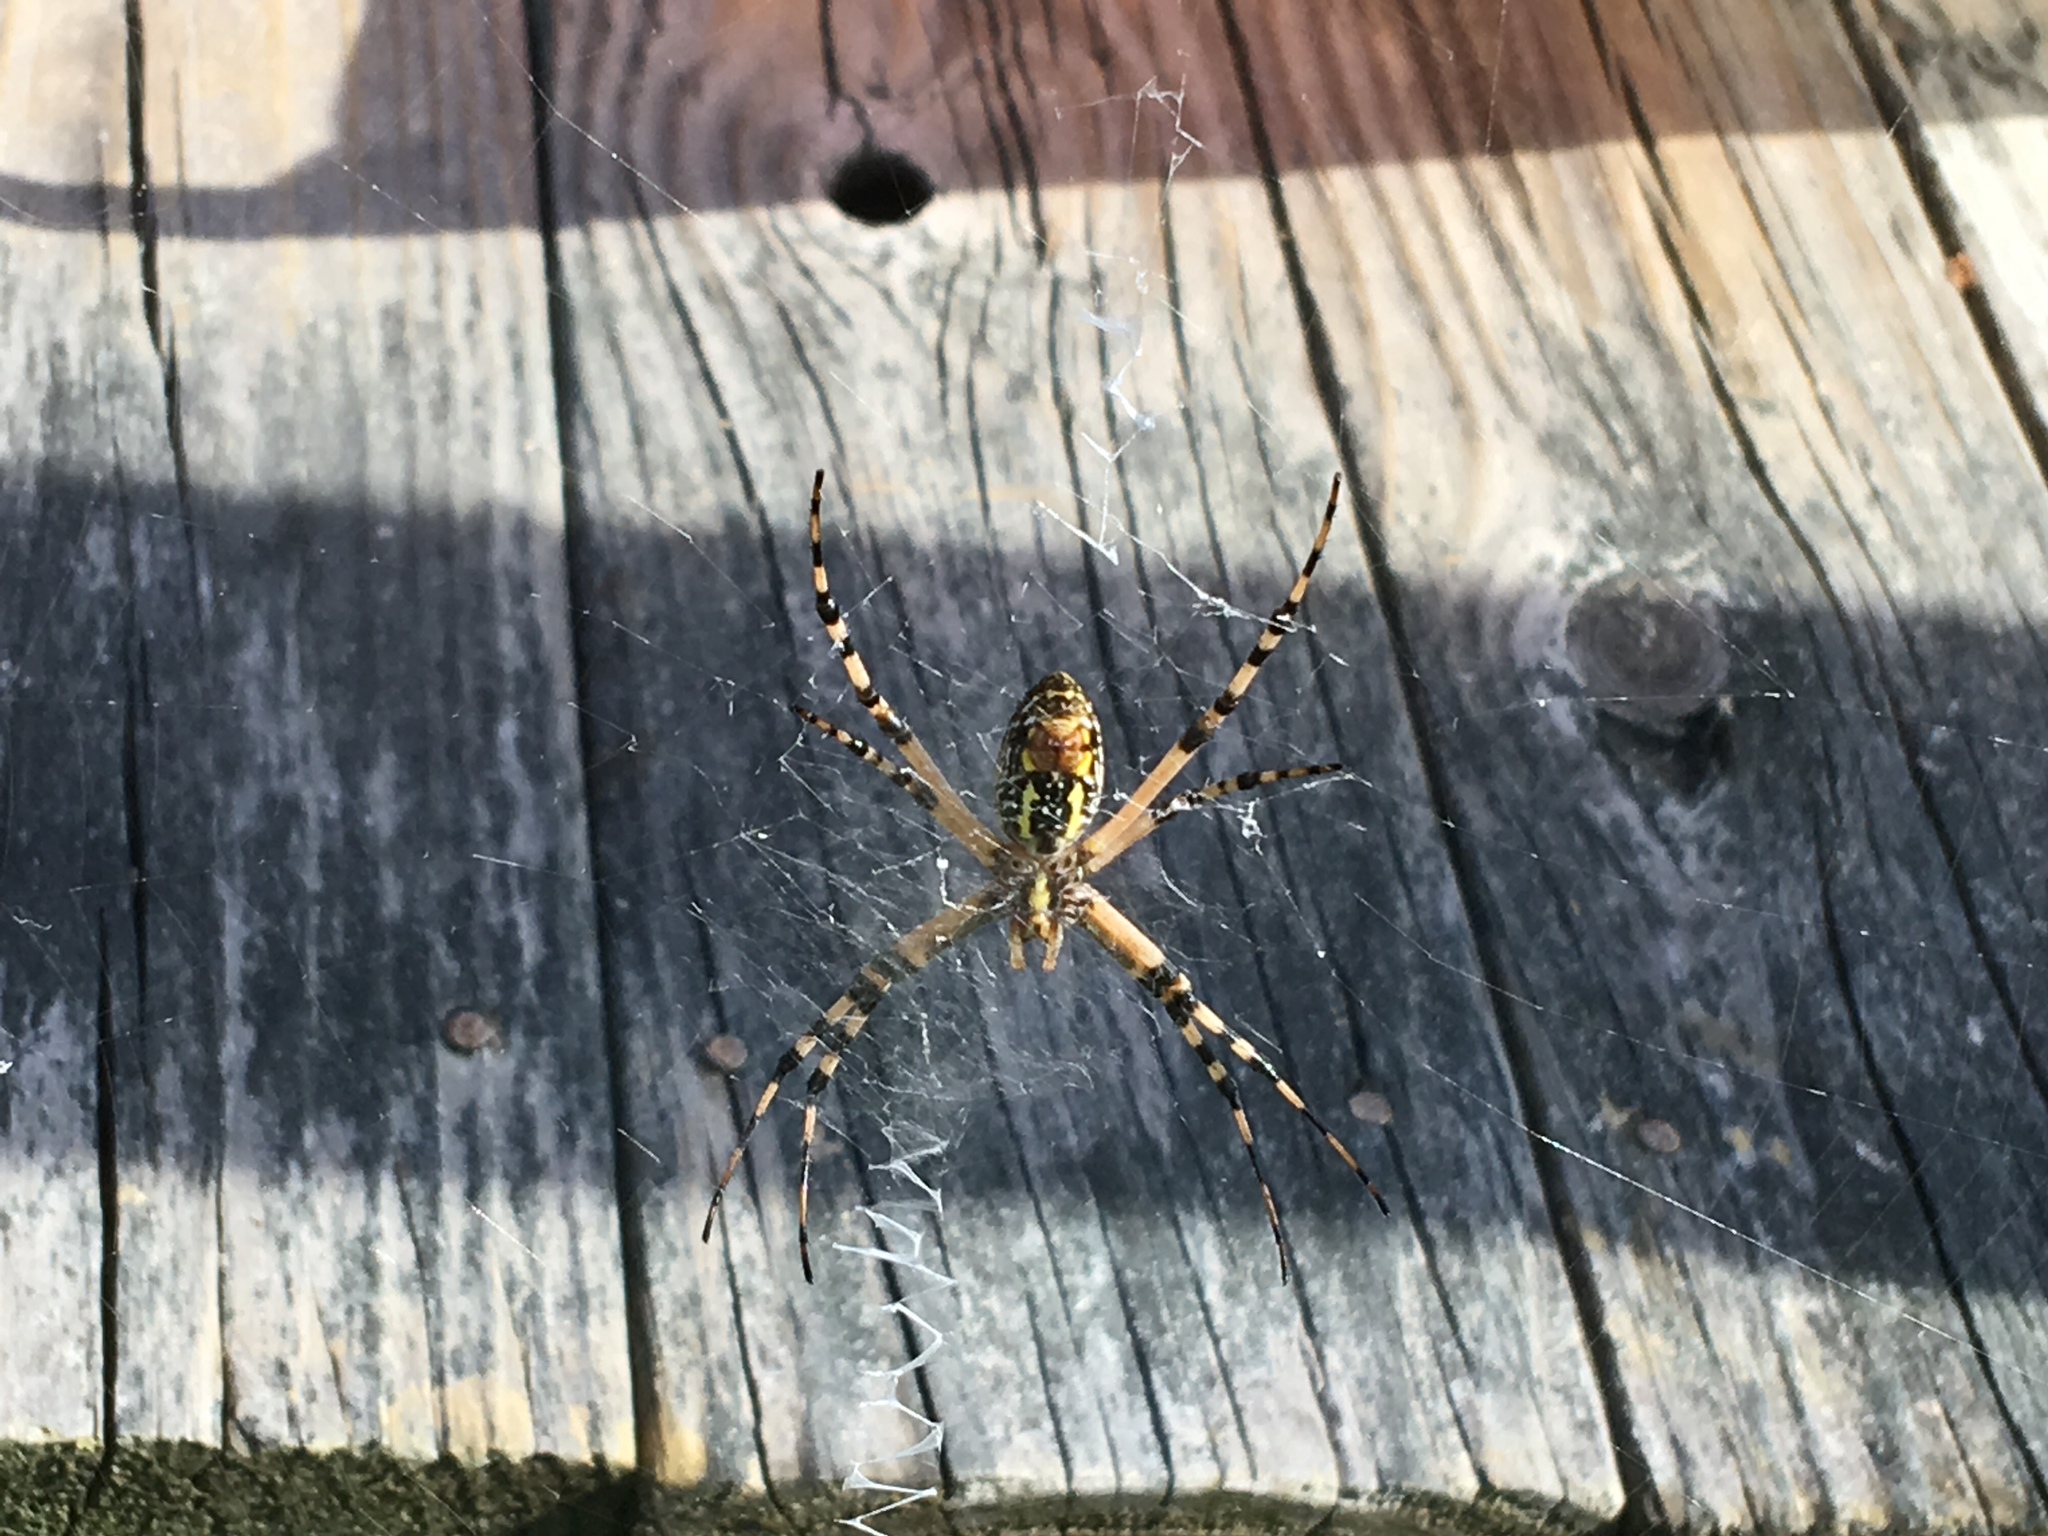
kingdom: Animalia
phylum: Arthropoda
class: Arachnida
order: Araneae
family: Araneidae
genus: Argiope
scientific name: Argiope aurantia
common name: Orb weavers
